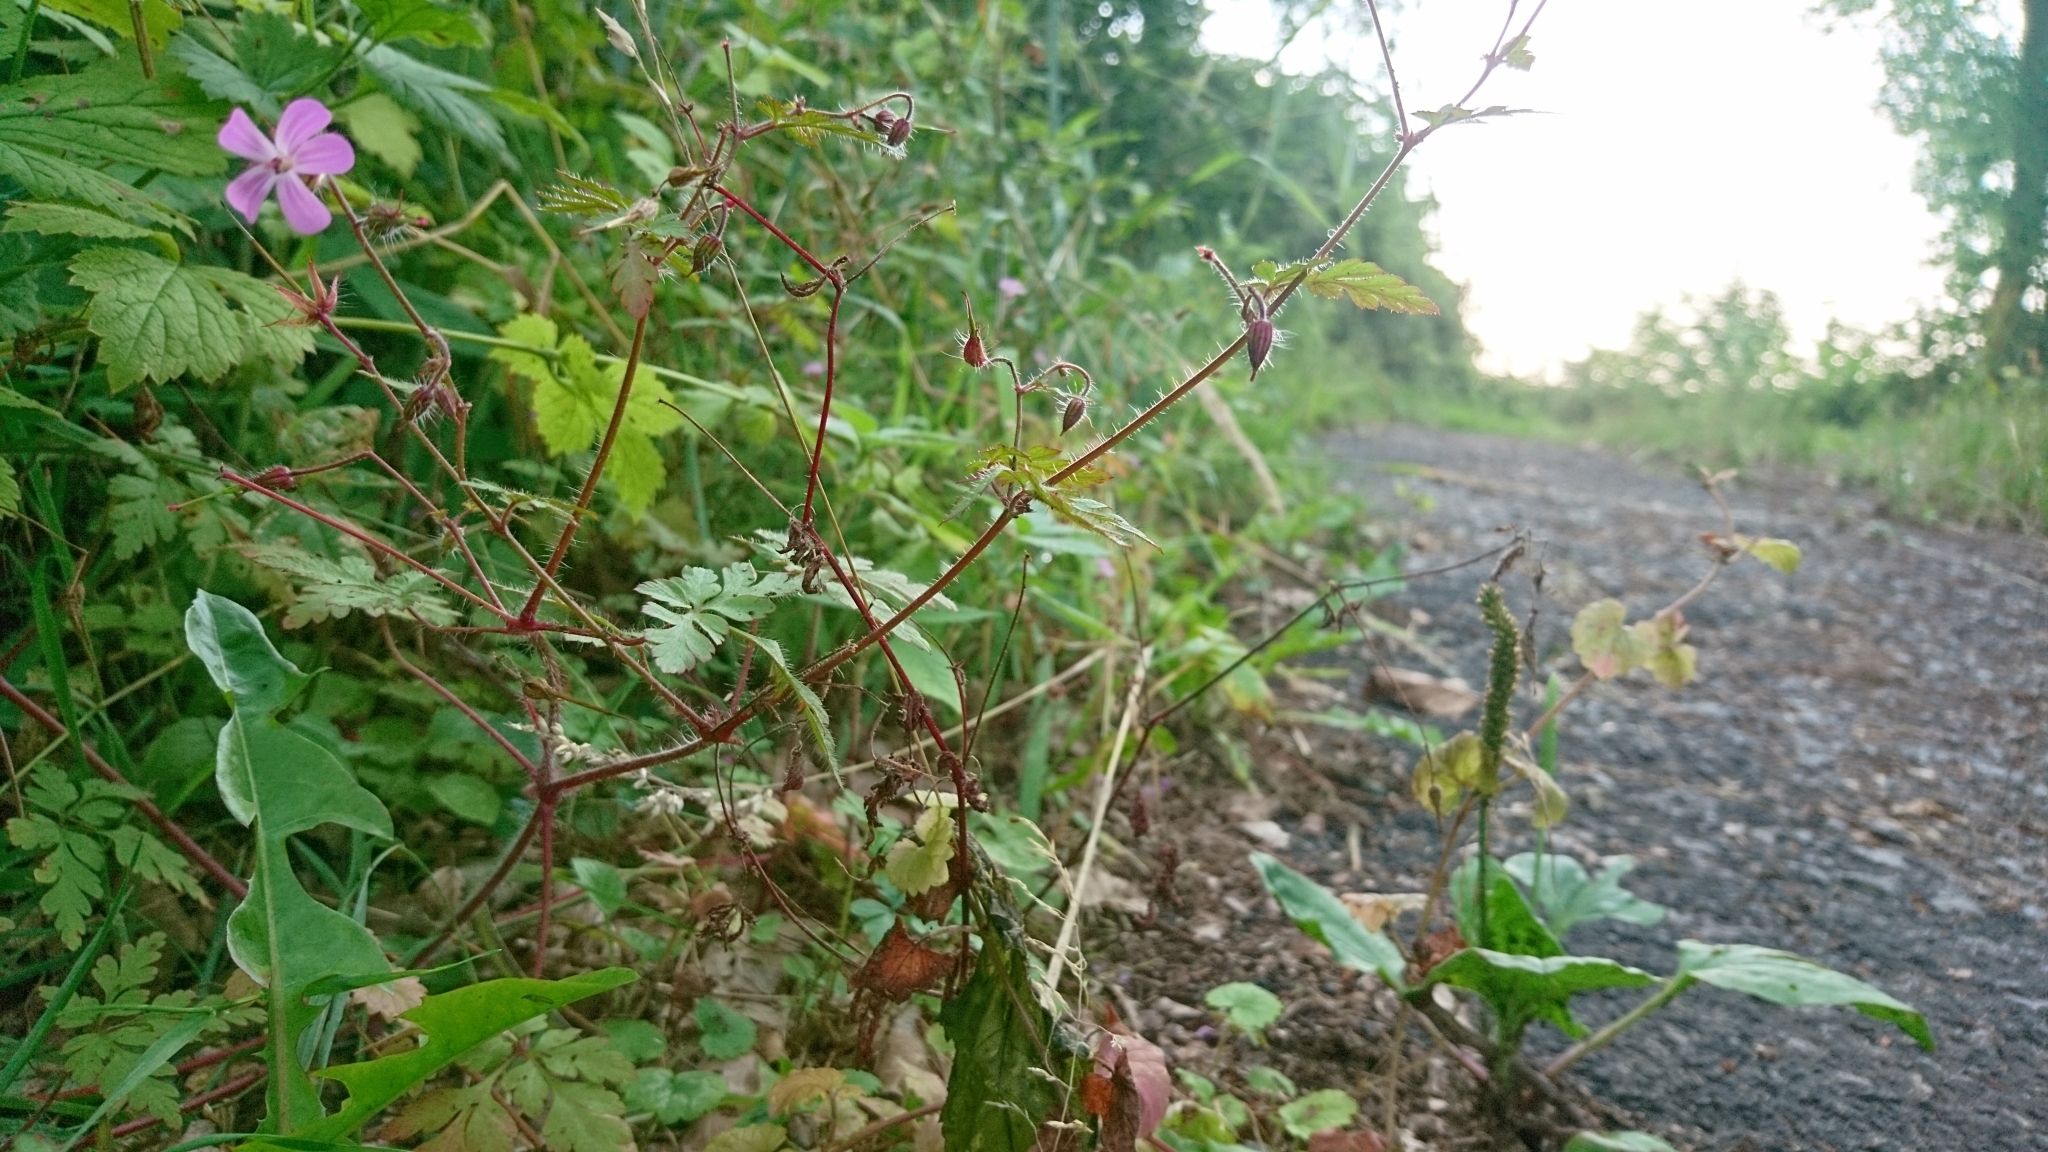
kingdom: Plantae
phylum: Tracheophyta
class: Magnoliopsida
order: Geraniales
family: Geraniaceae
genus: Geranium
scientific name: Geranium robertianum
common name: Herb-robert
